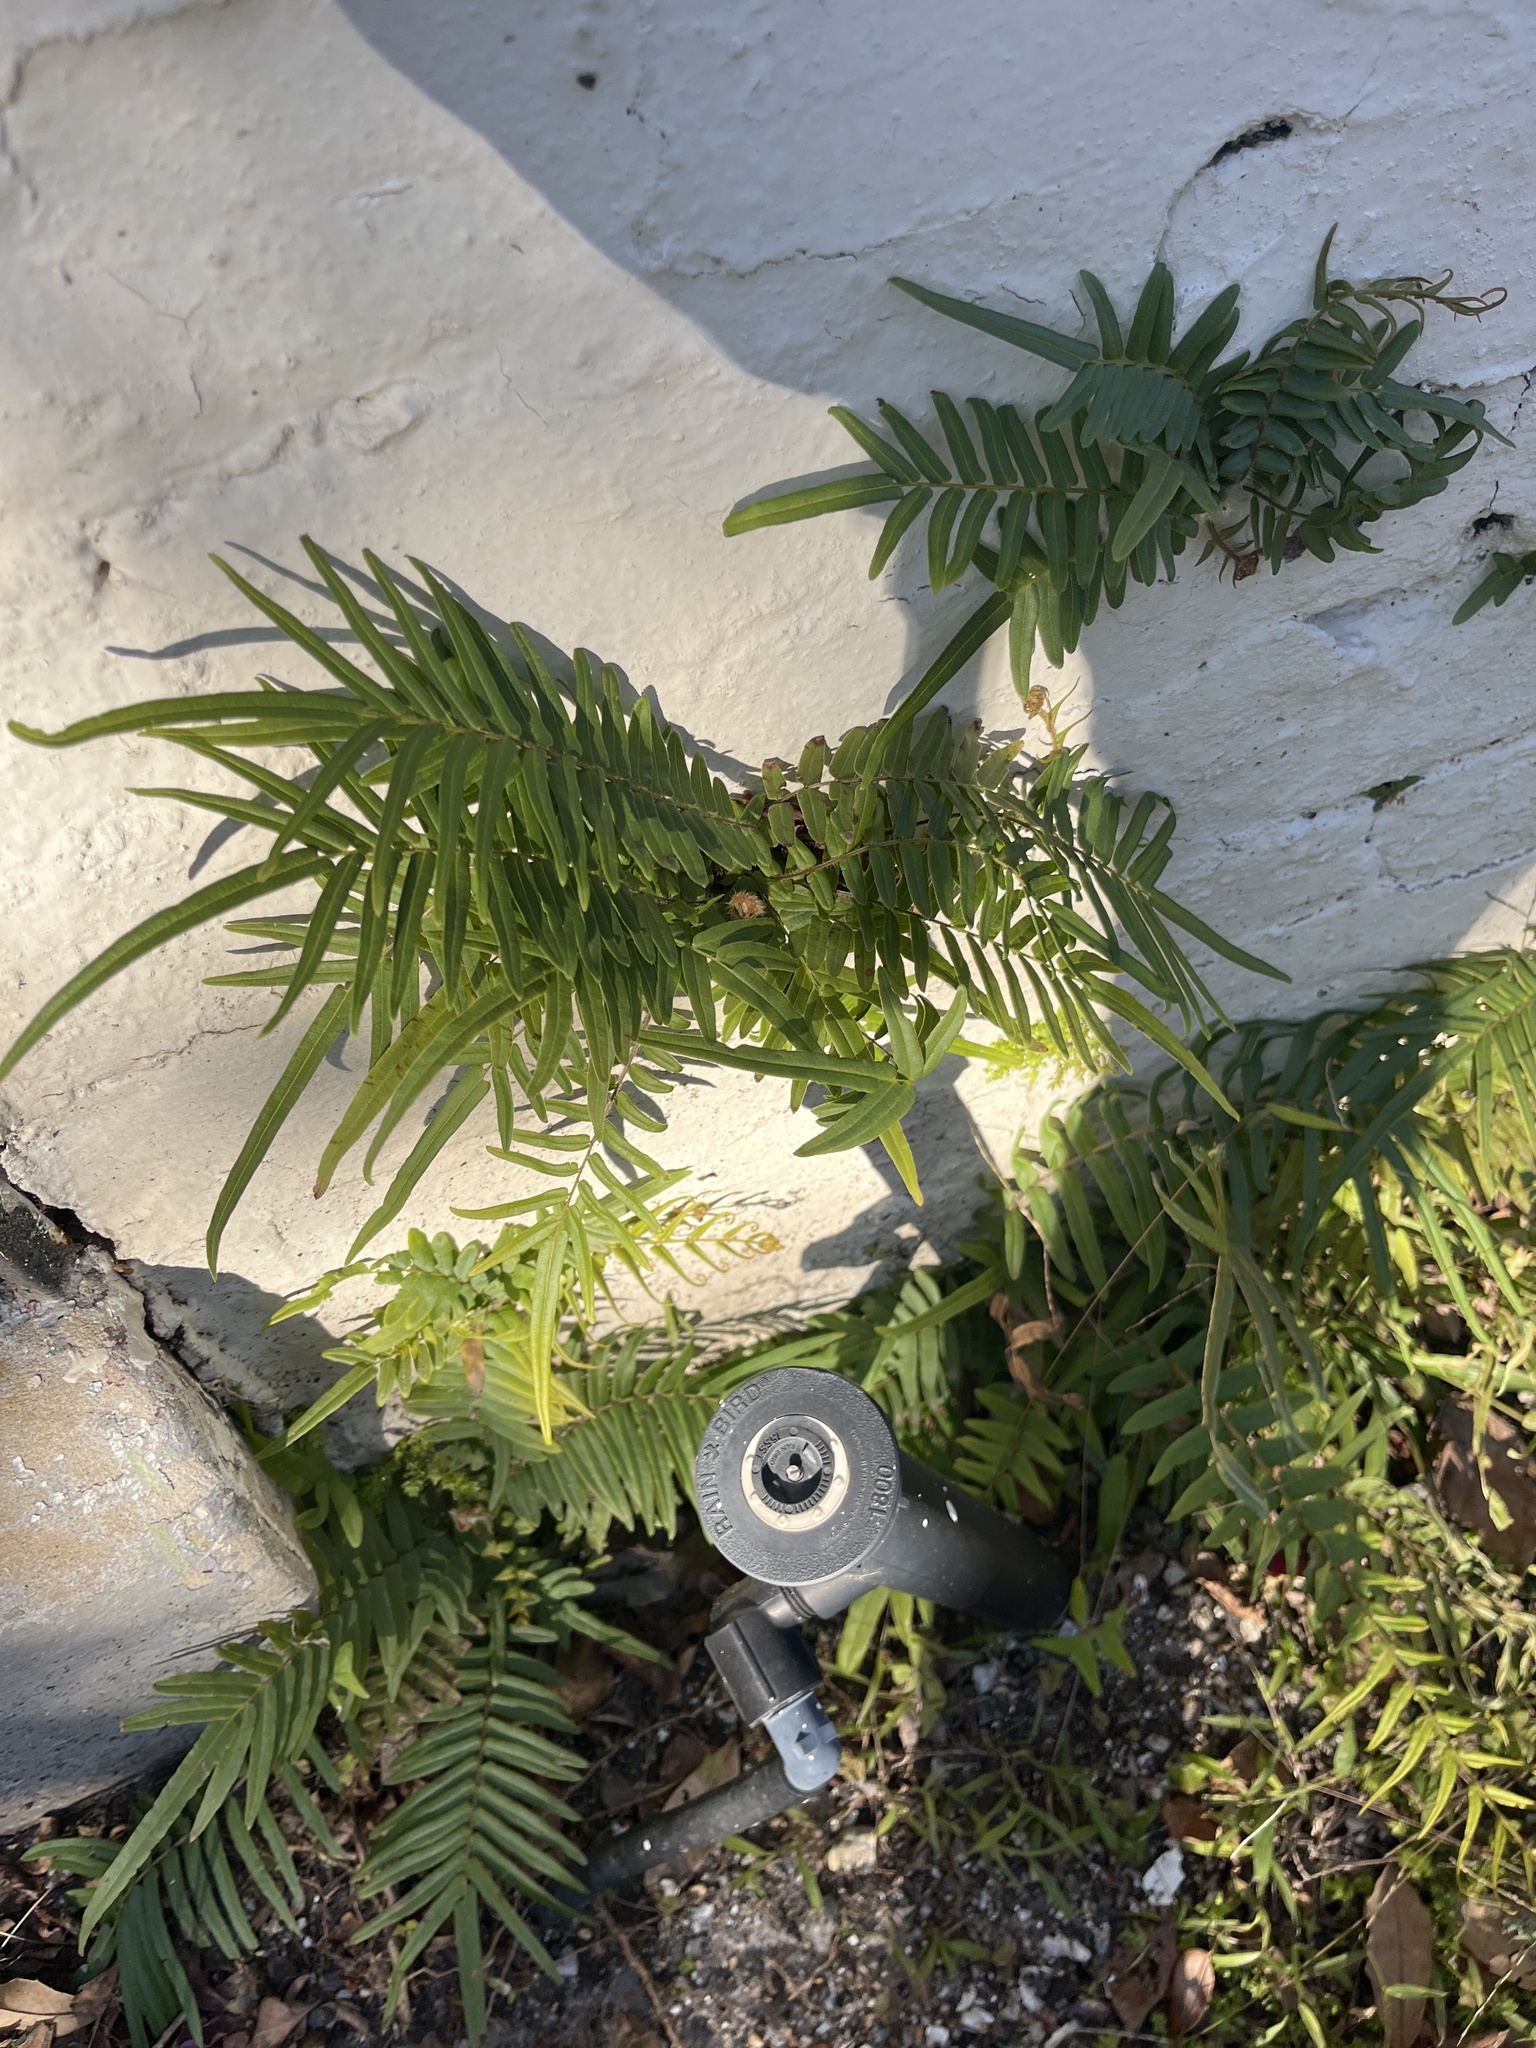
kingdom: Plantae
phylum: Tracheophyta
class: Polypodiopsida
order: Polypodiales
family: Pteridaceae
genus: Pteris
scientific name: Pteris vittata
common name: Ladder brake
